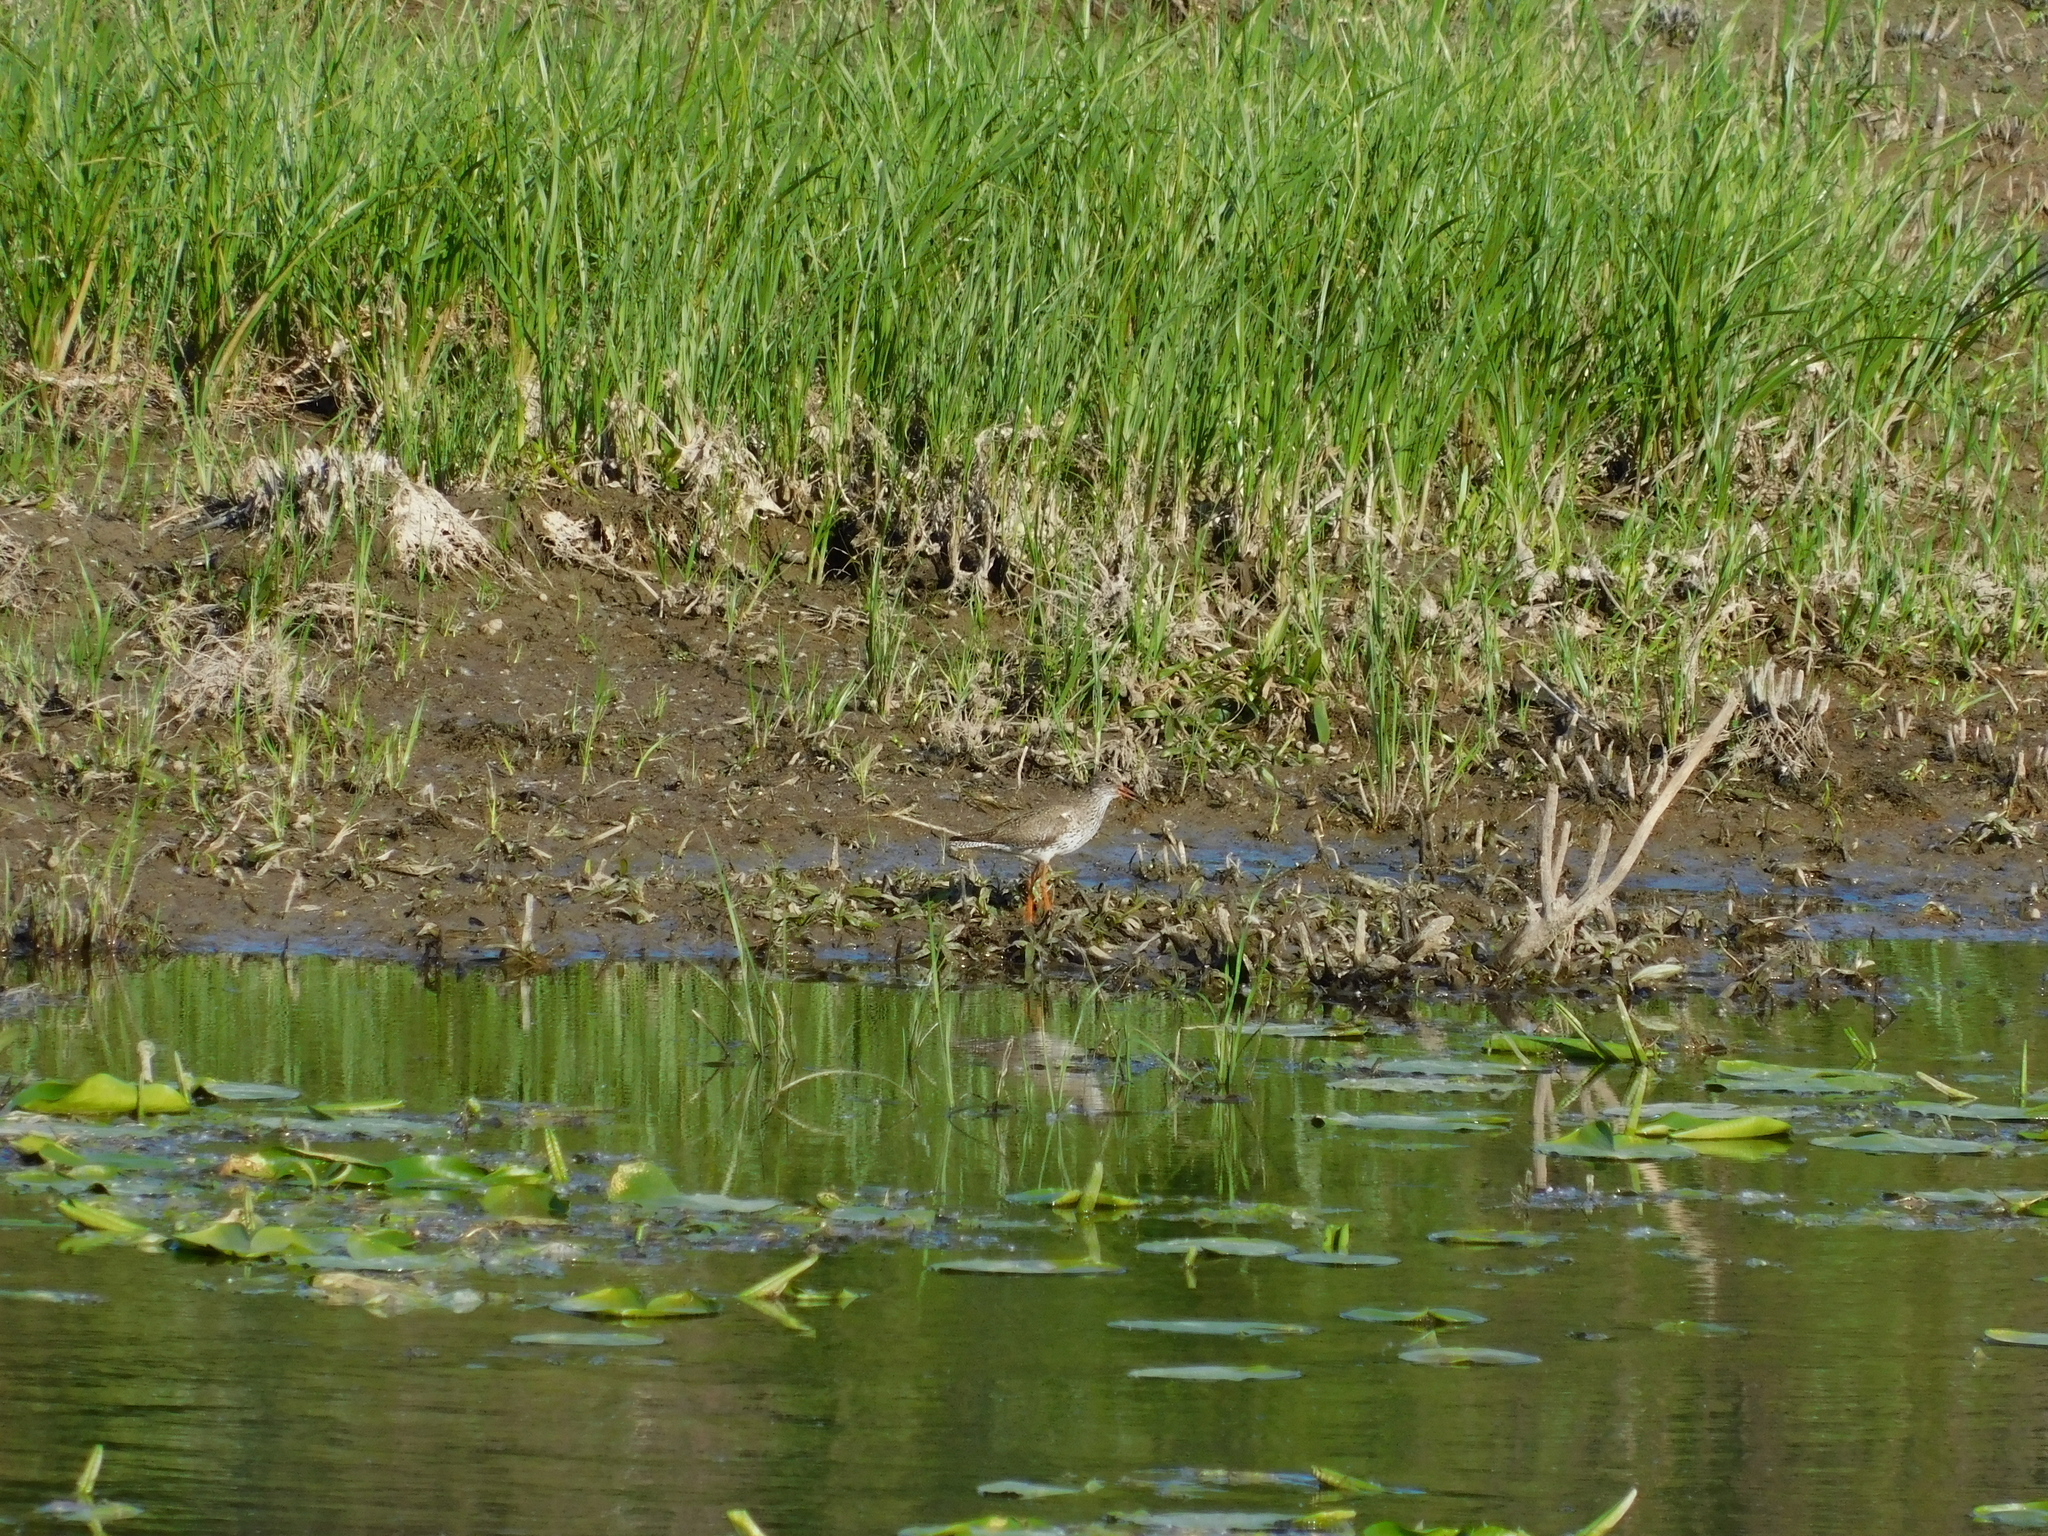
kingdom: Animalia
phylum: Chordata
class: Aves
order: Charadriiformes
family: Scolopacidae
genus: Tringa
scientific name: Tringa totanus
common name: Common redshank
